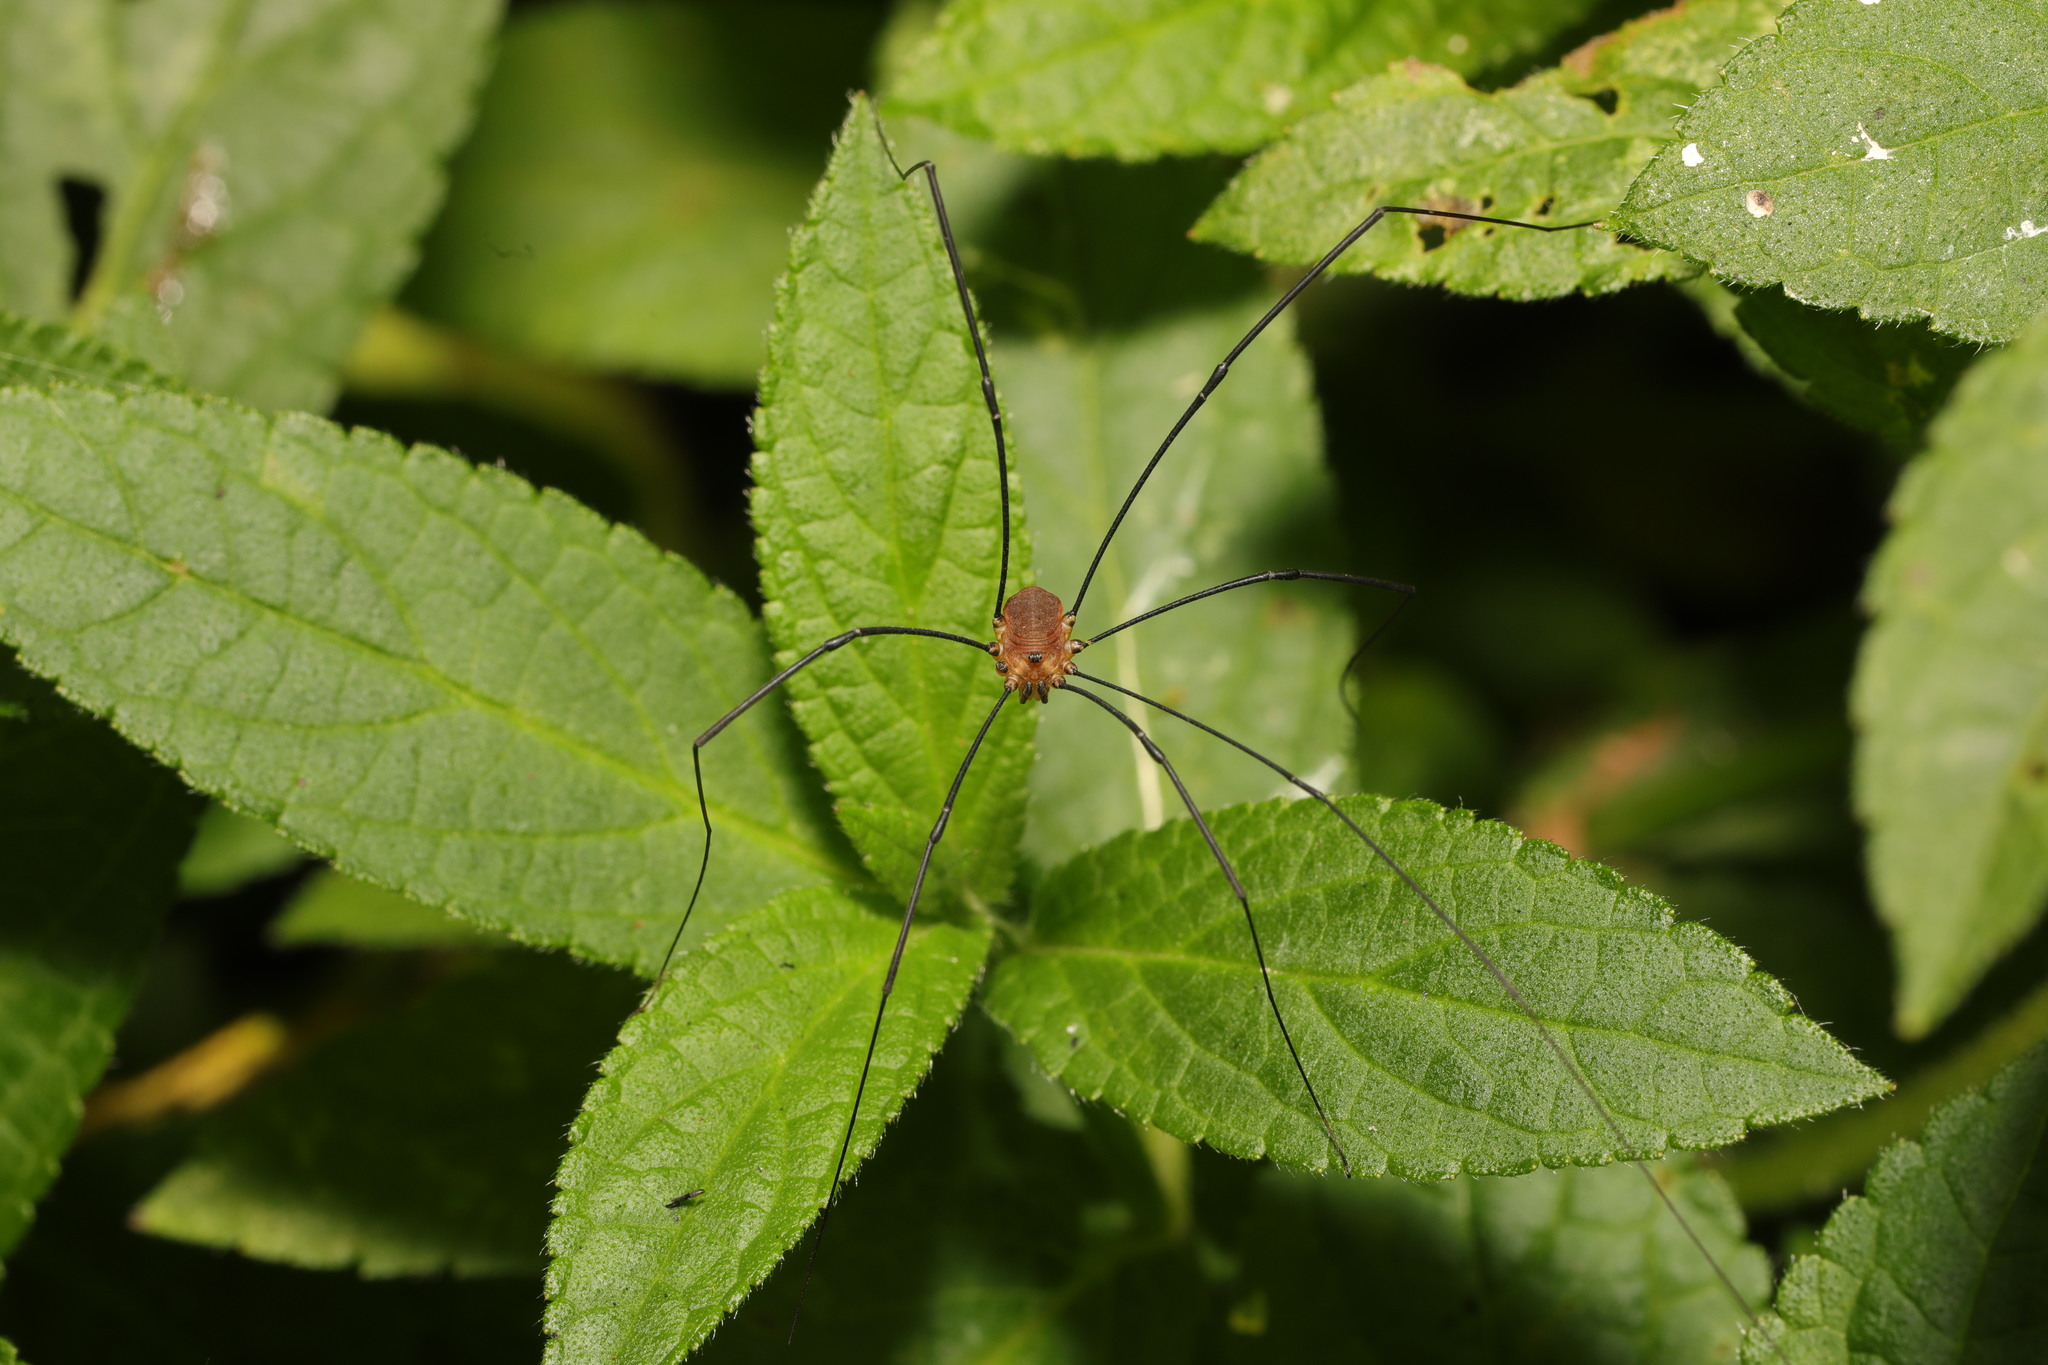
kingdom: Animalia
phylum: Arthropoda
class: Arachnida
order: Opiliones
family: Sclerosomatidae
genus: Leiobunum
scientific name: Leiobunum rotundum
